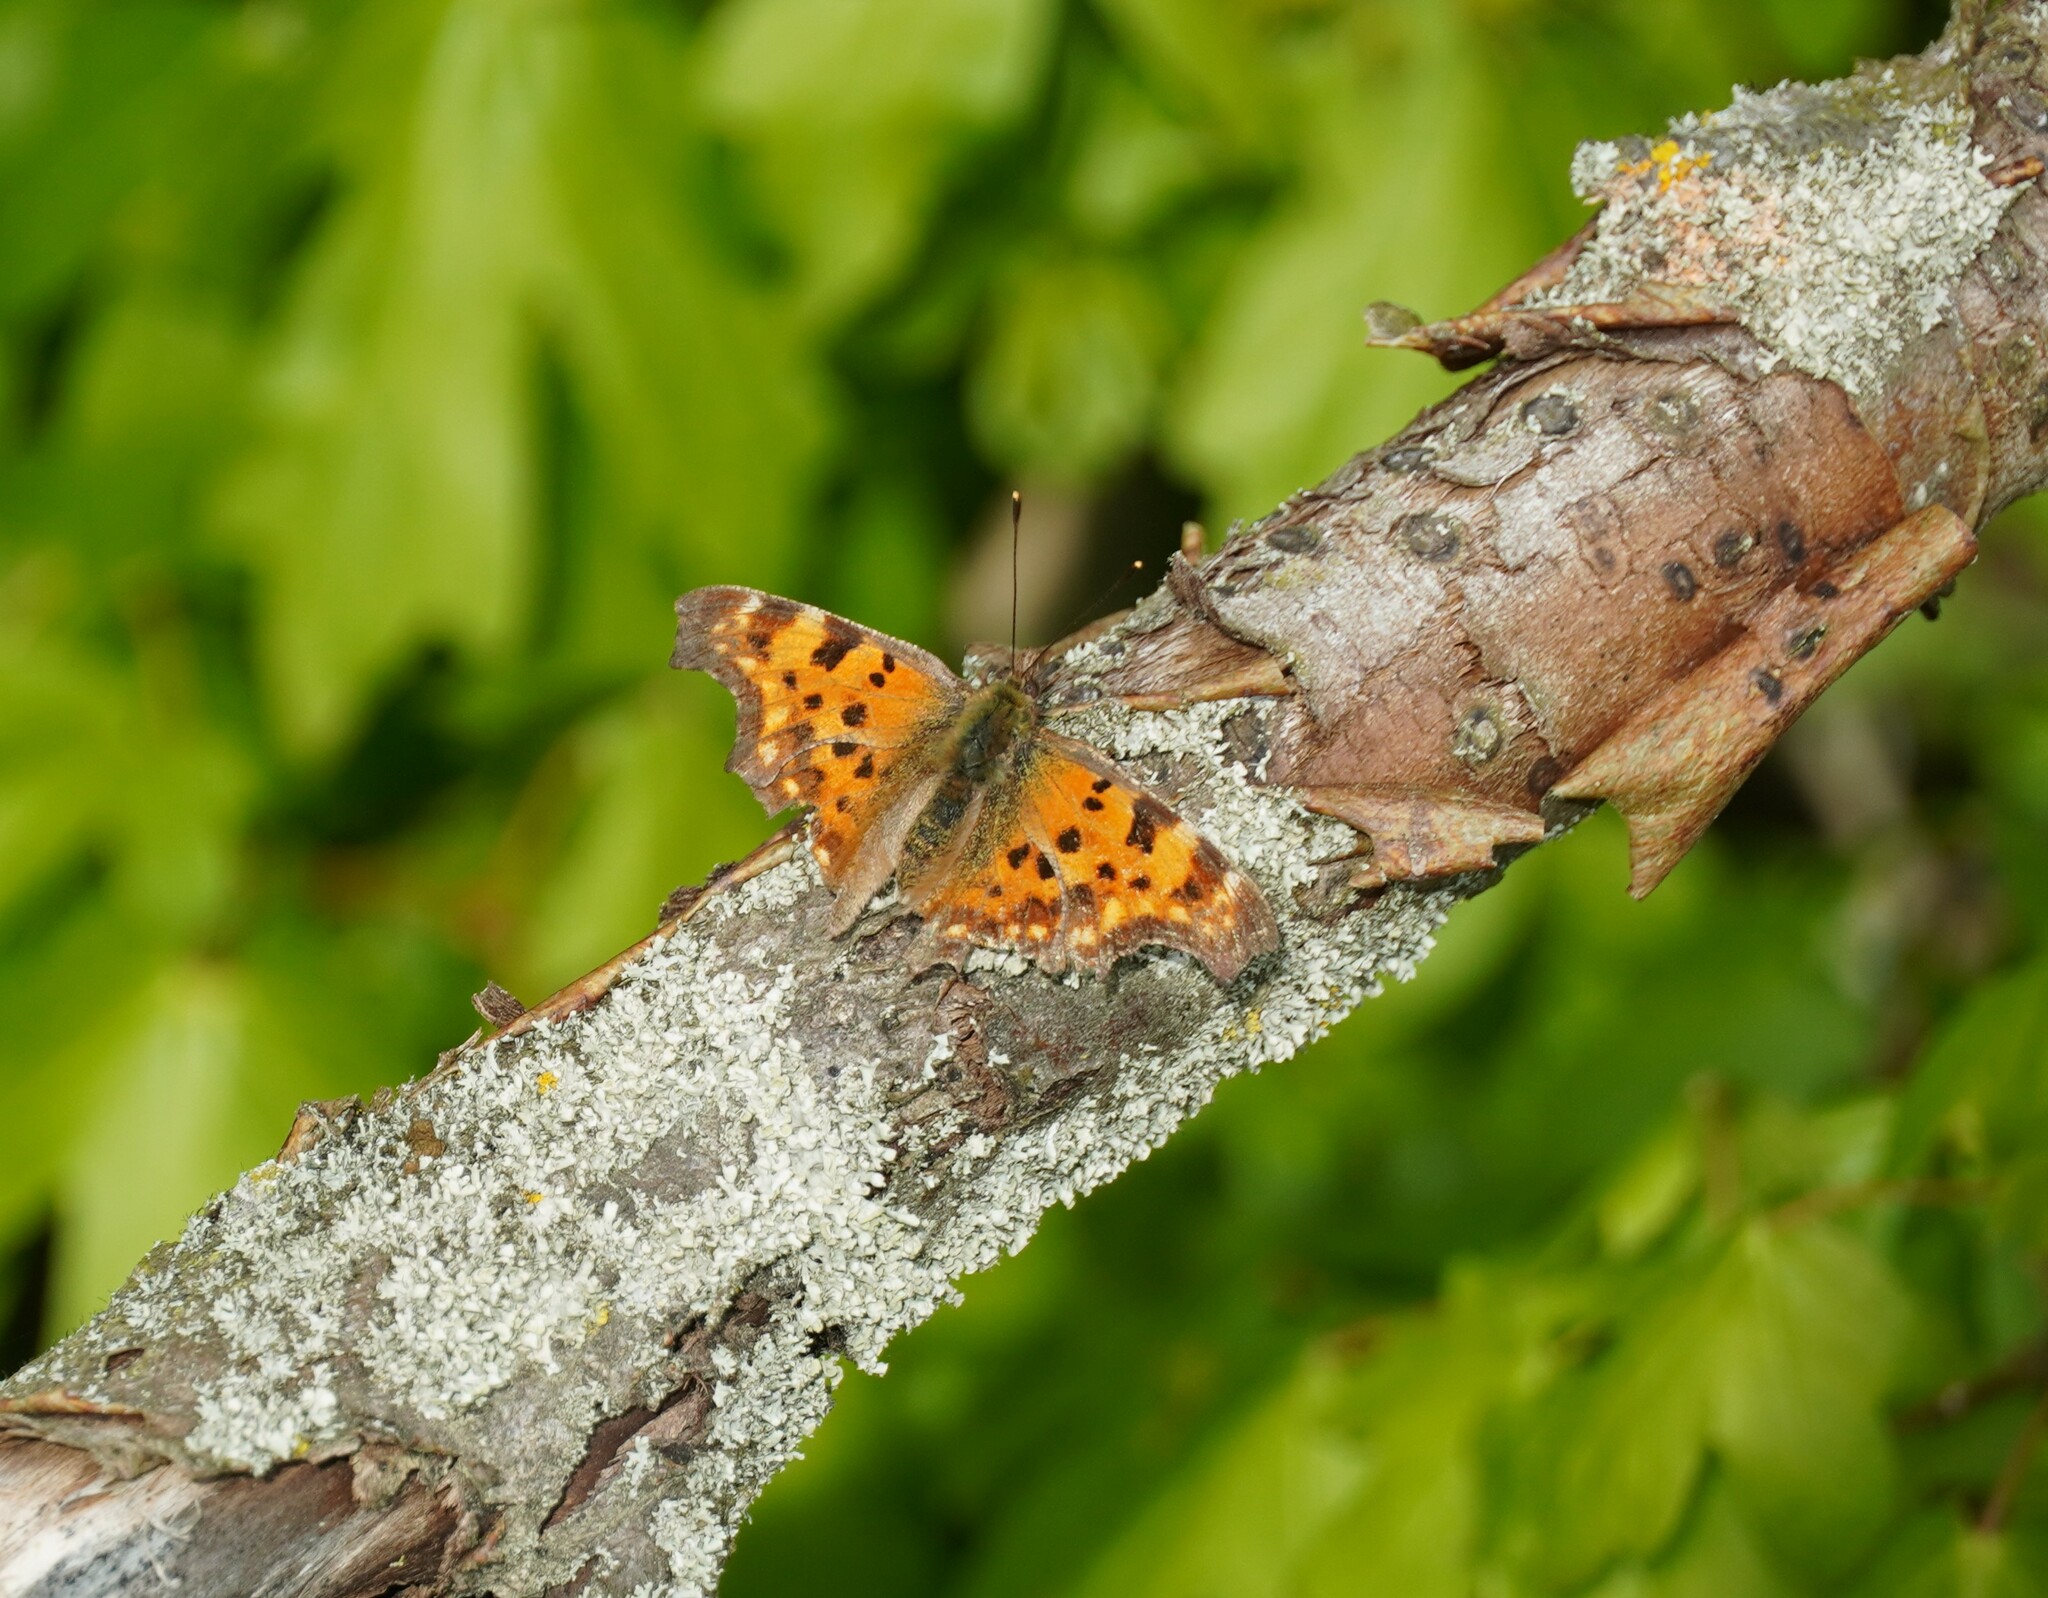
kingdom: Animalia
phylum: Arthropoda
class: Insecta
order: Lepidoptera
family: Nymphalidae
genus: Polygonia
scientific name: Polygonia c-album
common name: Comma
